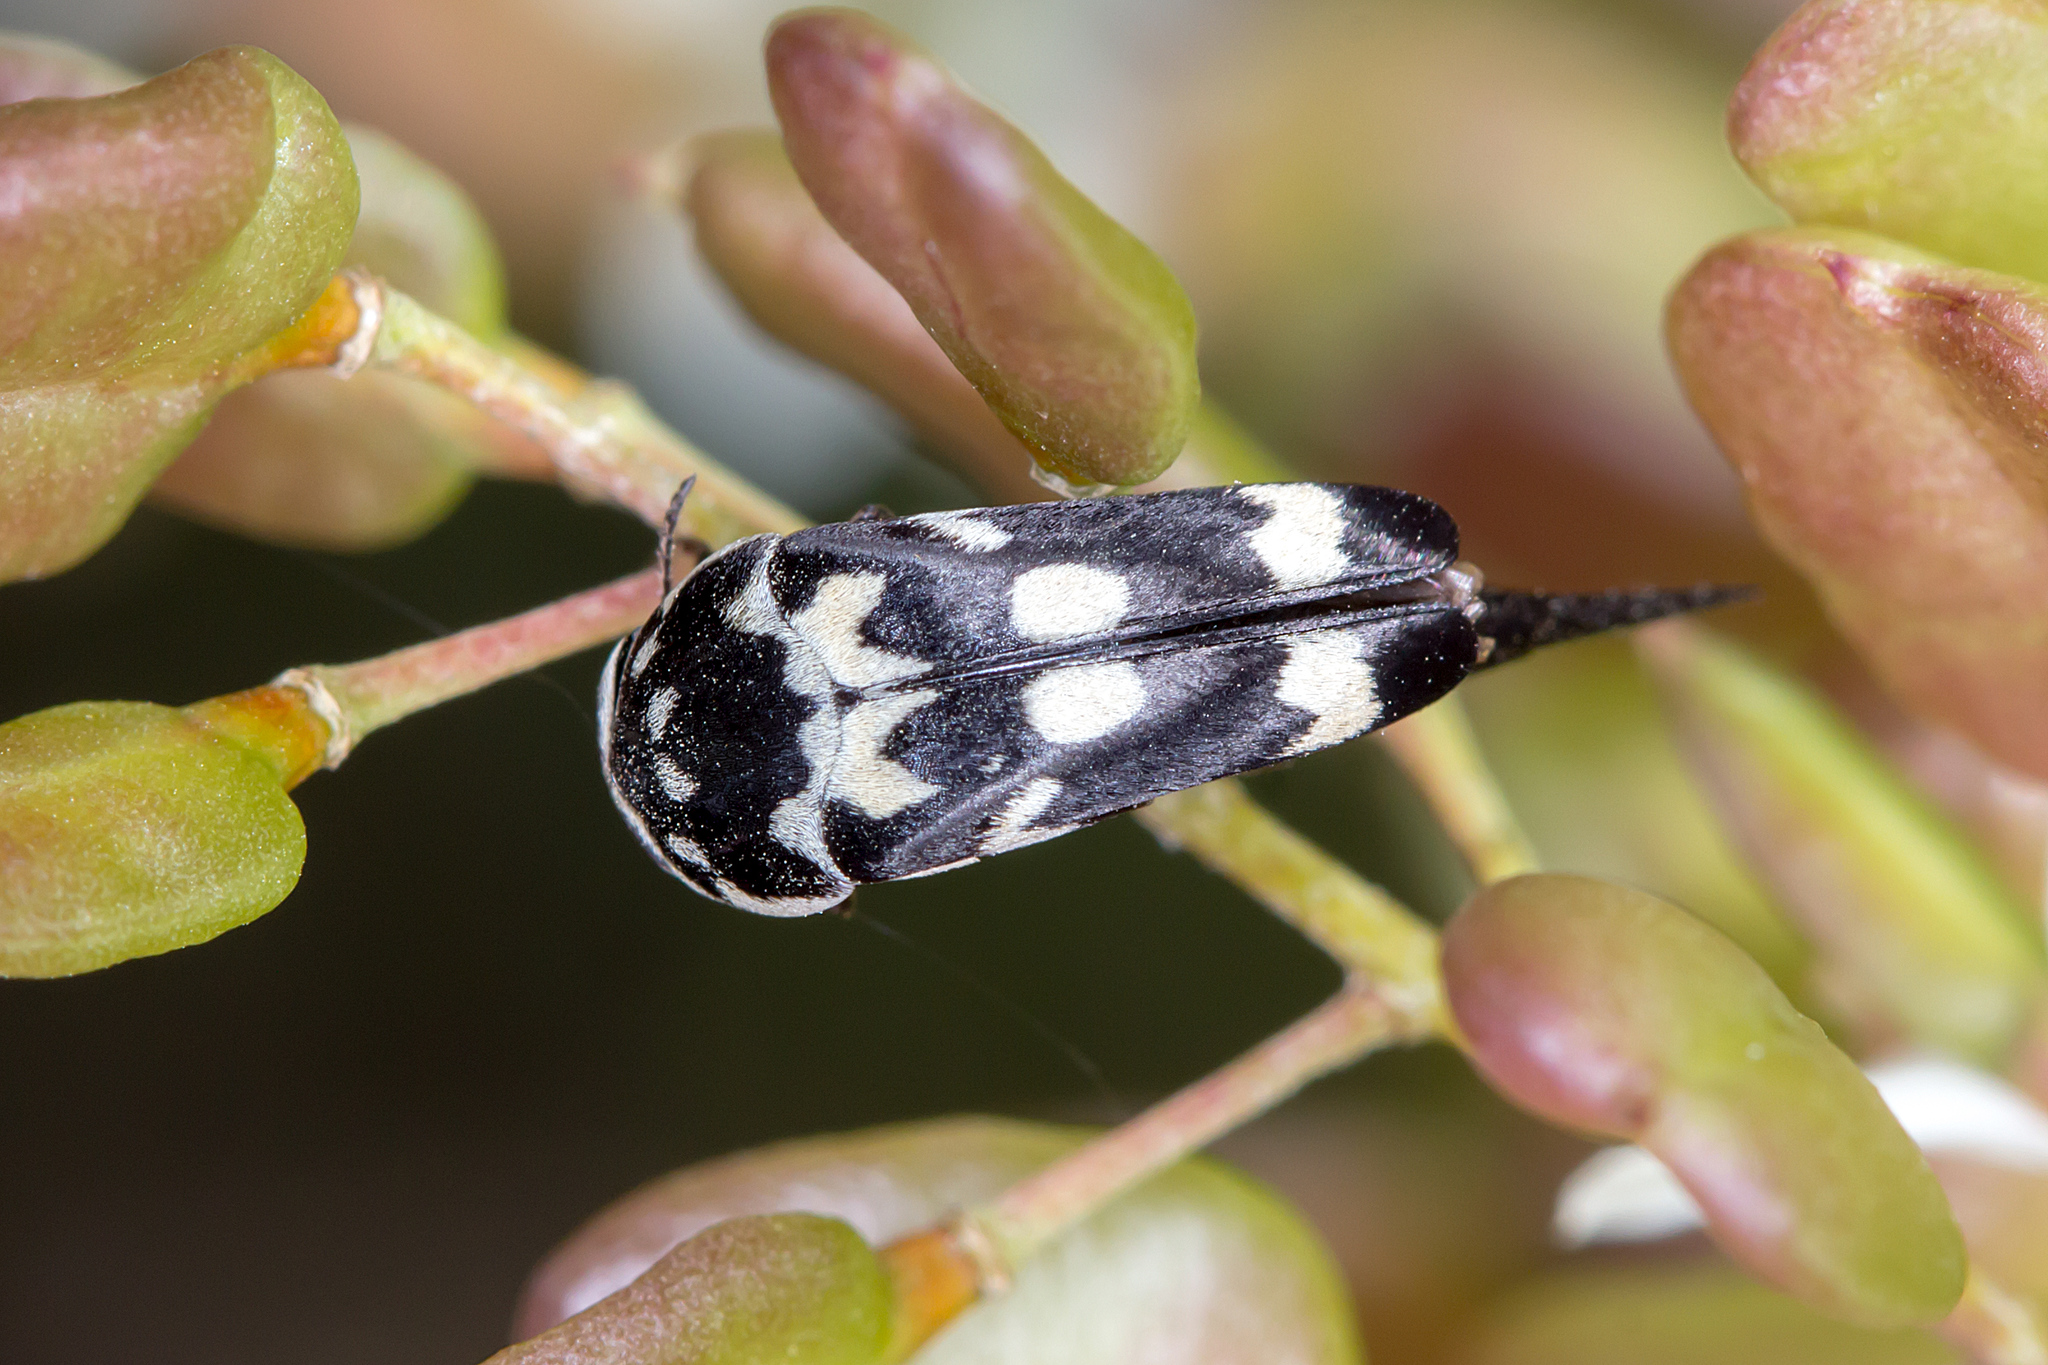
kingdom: Animalia
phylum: Arthropoda
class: Insecta
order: Coleoptera
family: Mordellidae
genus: Hoshihananomia
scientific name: Hoshihananomia
